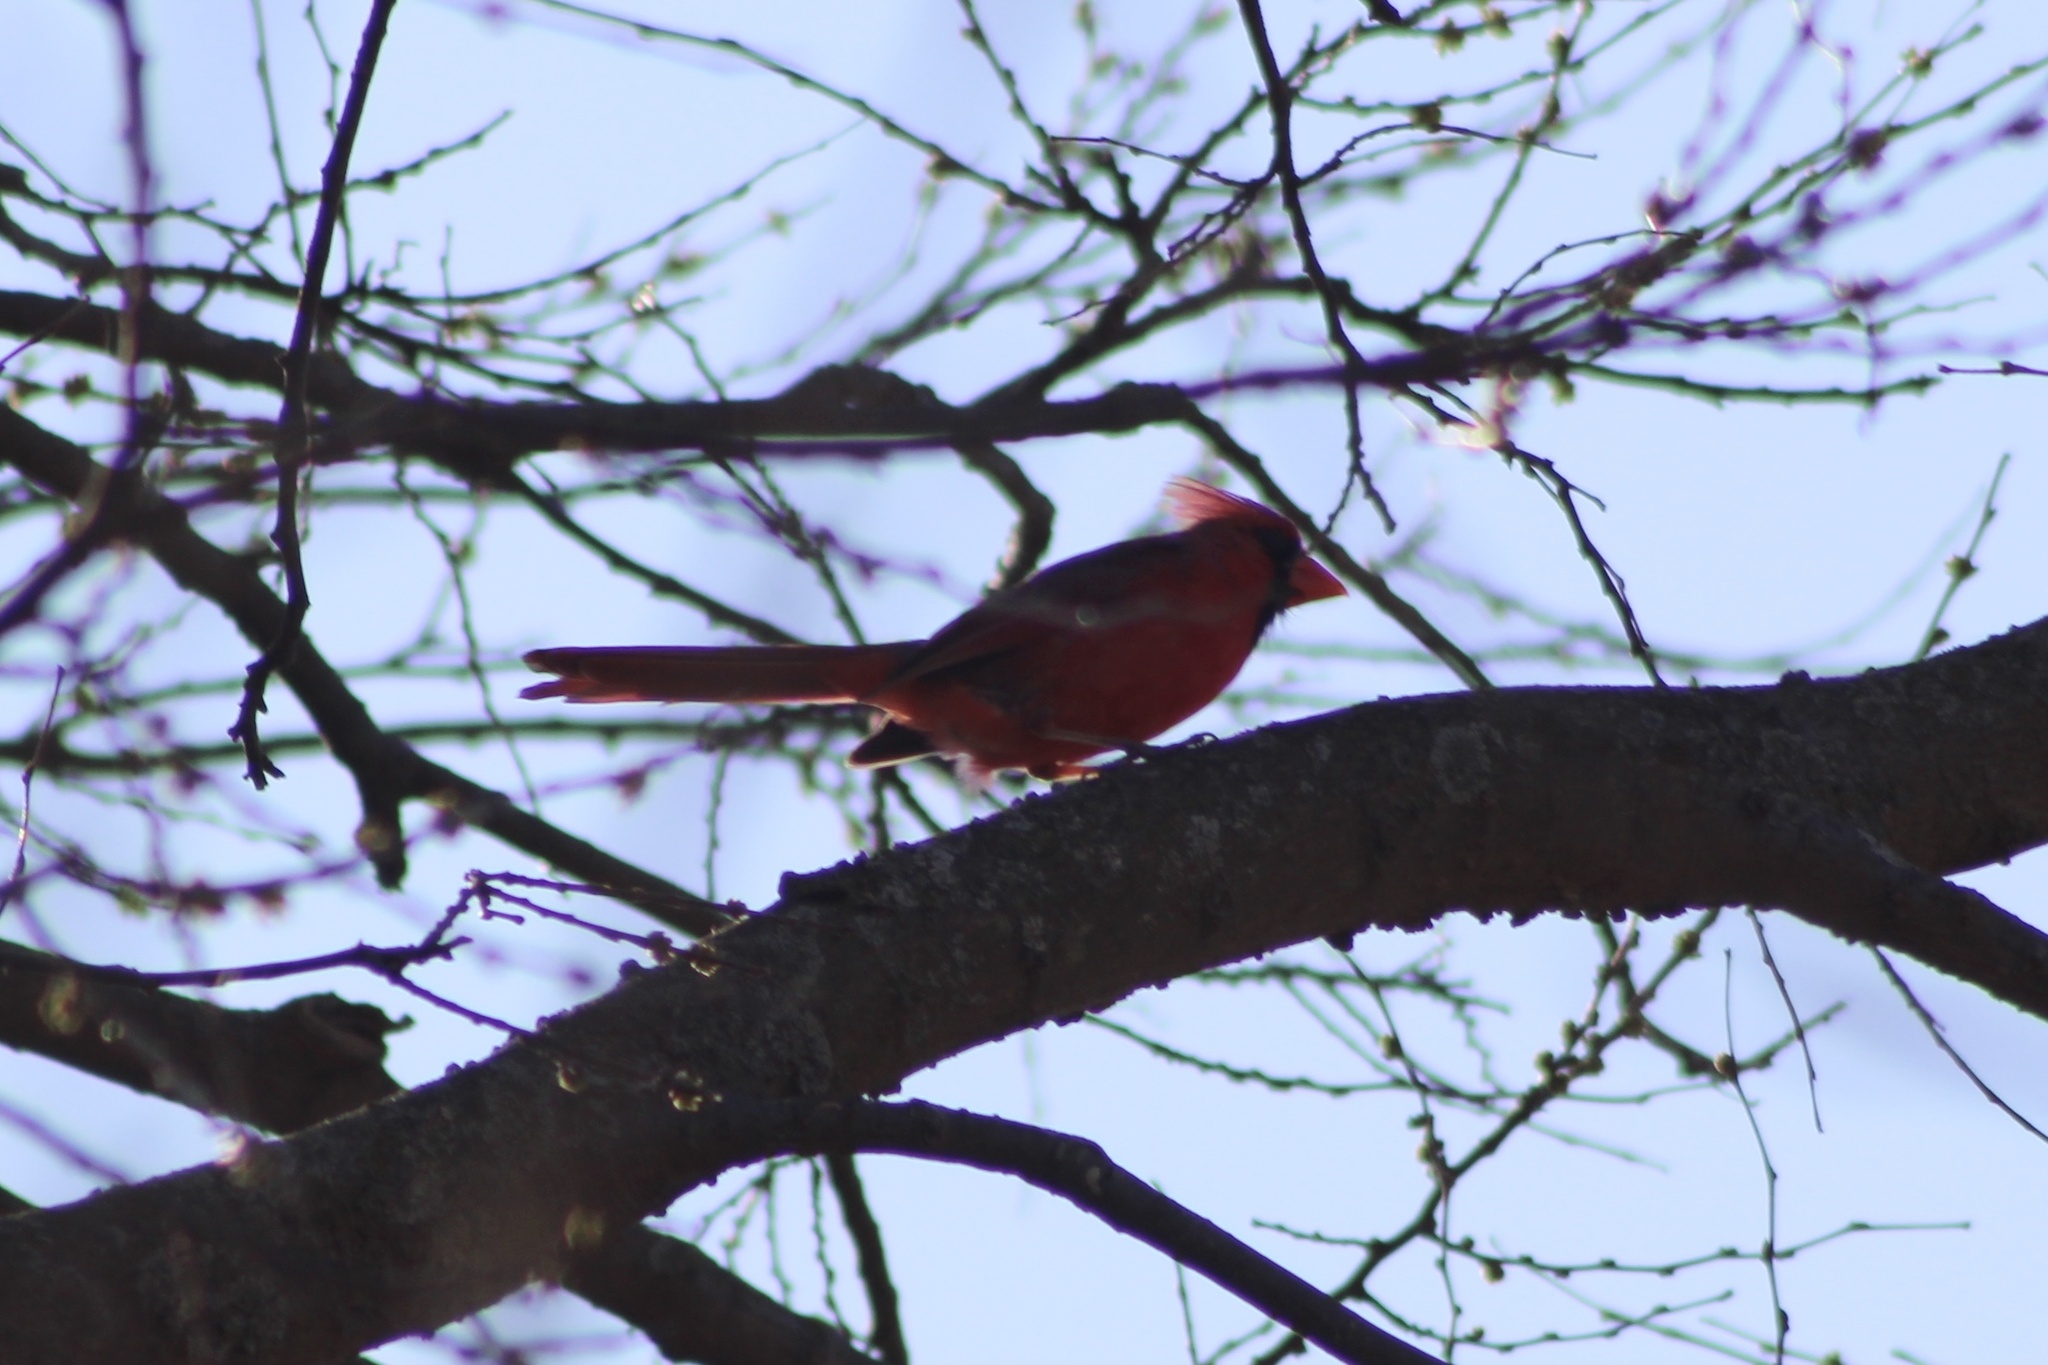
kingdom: Animalia
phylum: Chordata
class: Aves
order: Passeriformes
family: Cardinalidae
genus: Cardinalis
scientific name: Cardinalis cardinalis
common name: Northern cardinal
